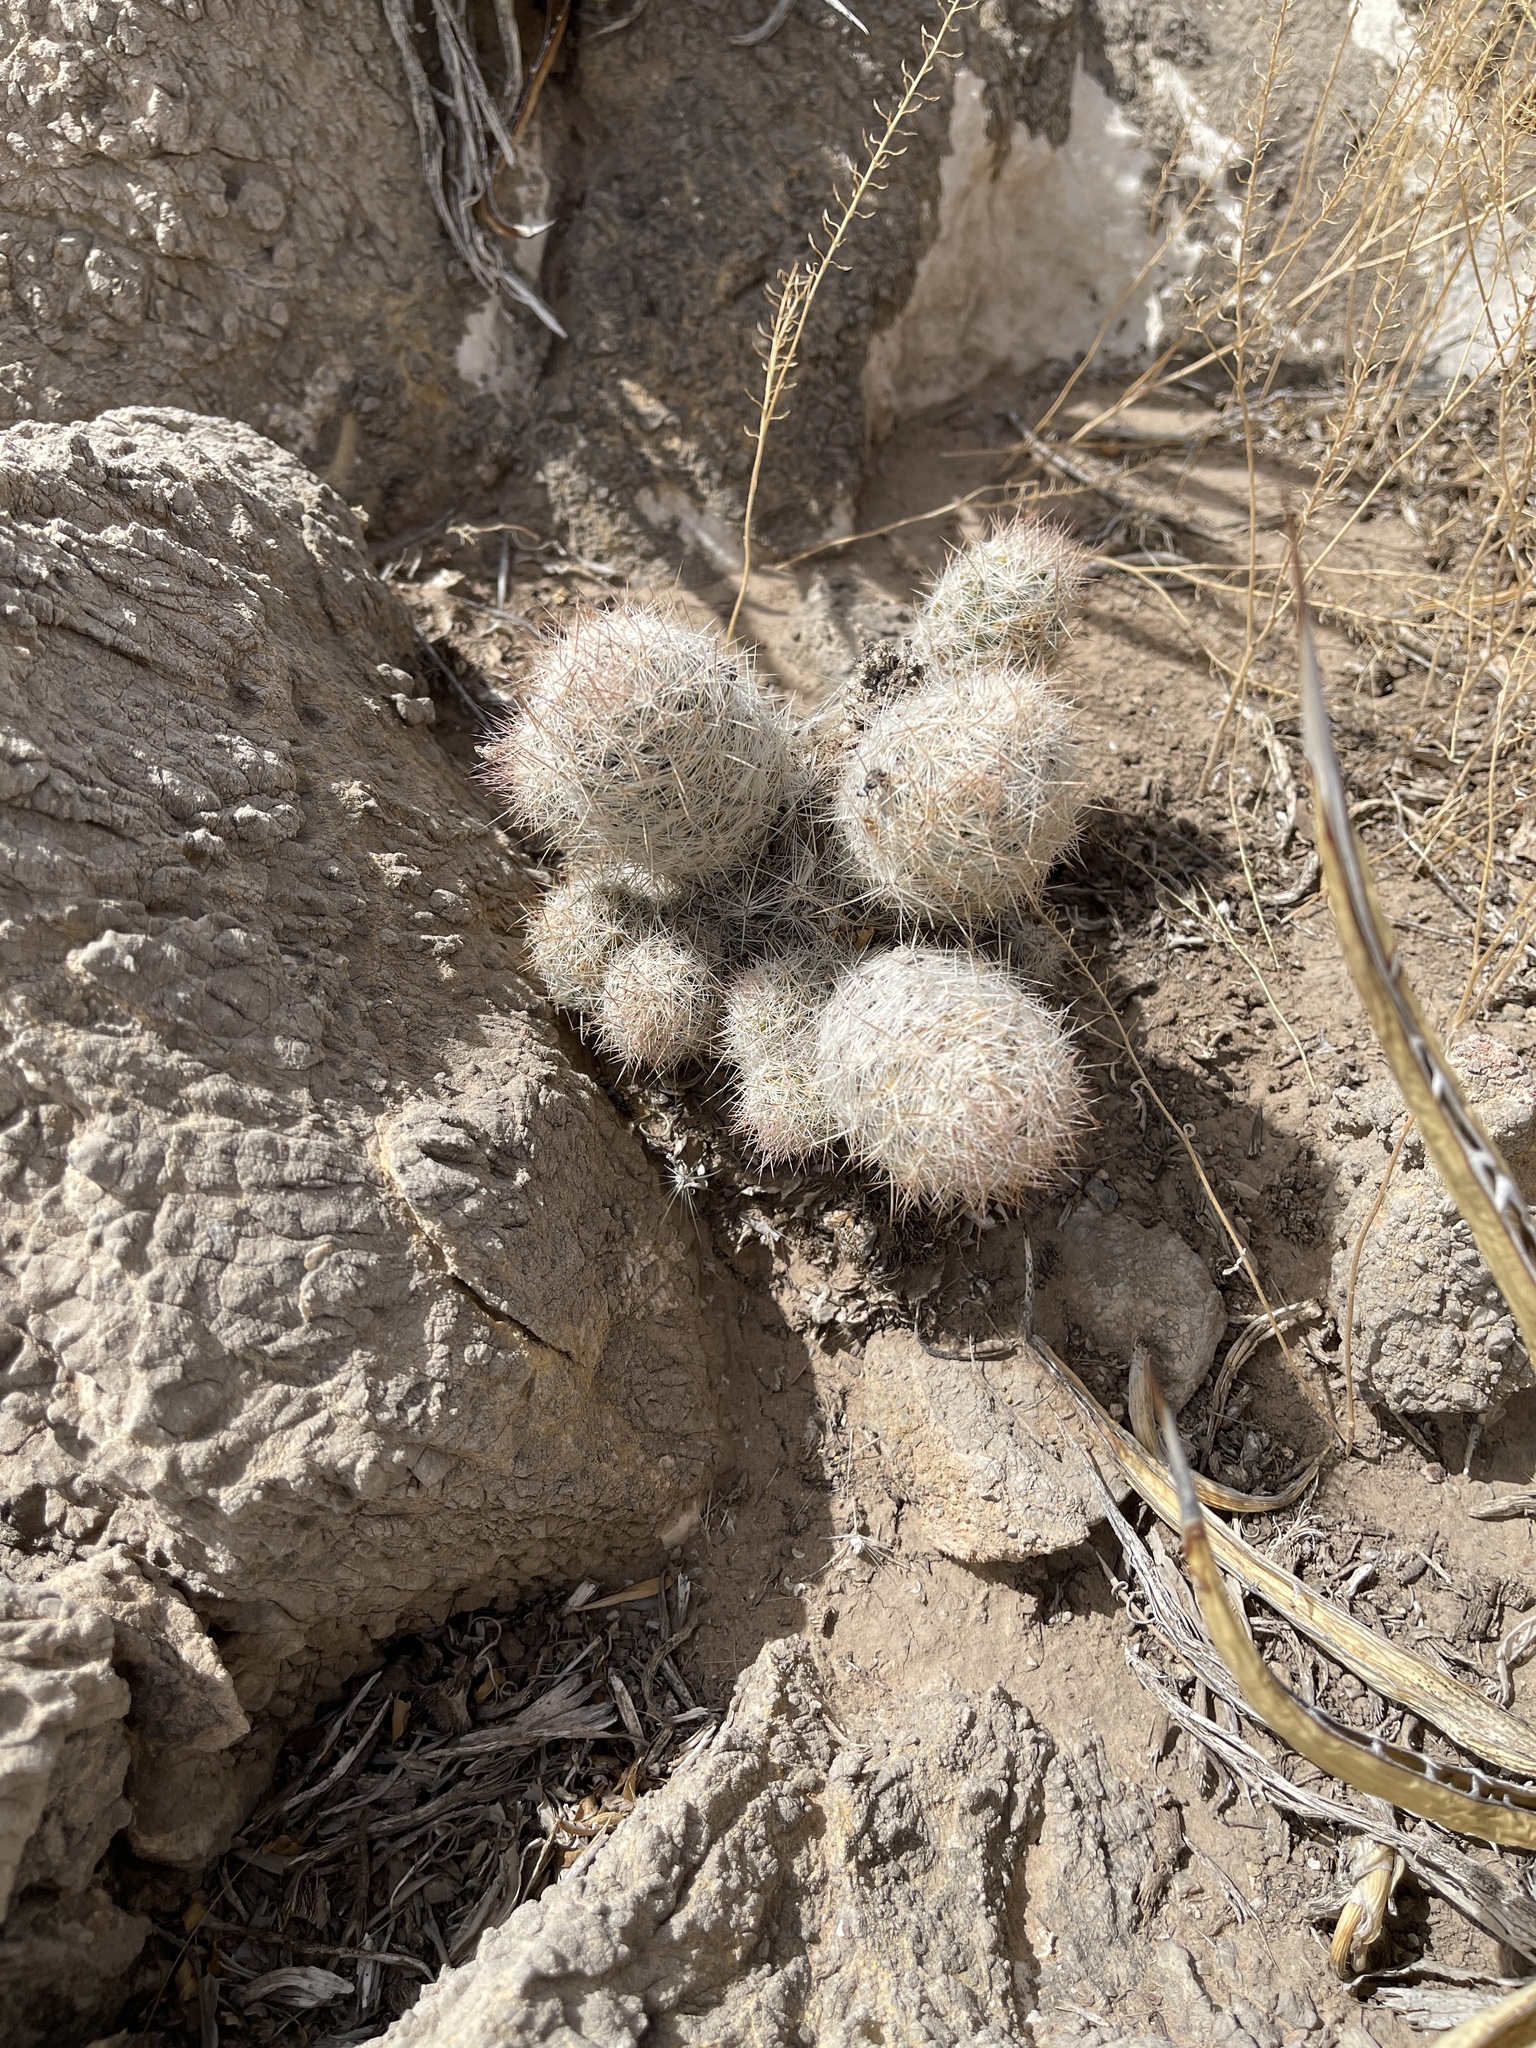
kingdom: Plantae
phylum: Tracheophyta
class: Magnoliopsida
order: Caryophyllales
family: Cactaceae
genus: Pelecyphora
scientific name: Pelecyphora tuberculosa
